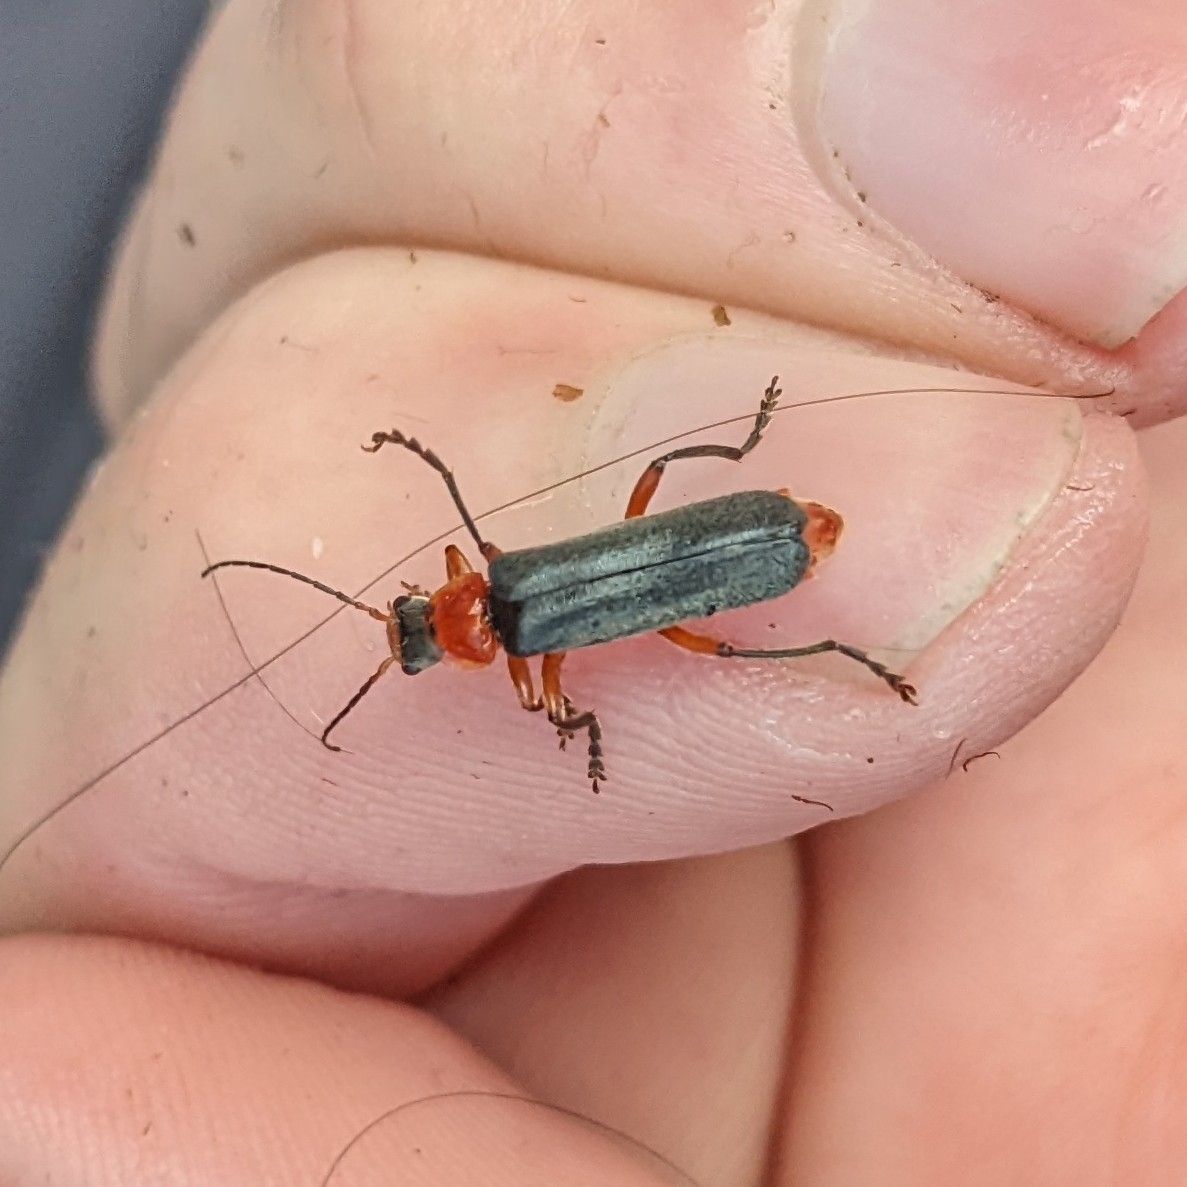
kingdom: Animalia
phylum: Arthropoda
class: Insecta
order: Coleoptera
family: Cantharidae
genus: Cantharis
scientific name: Cantharis pellucida
